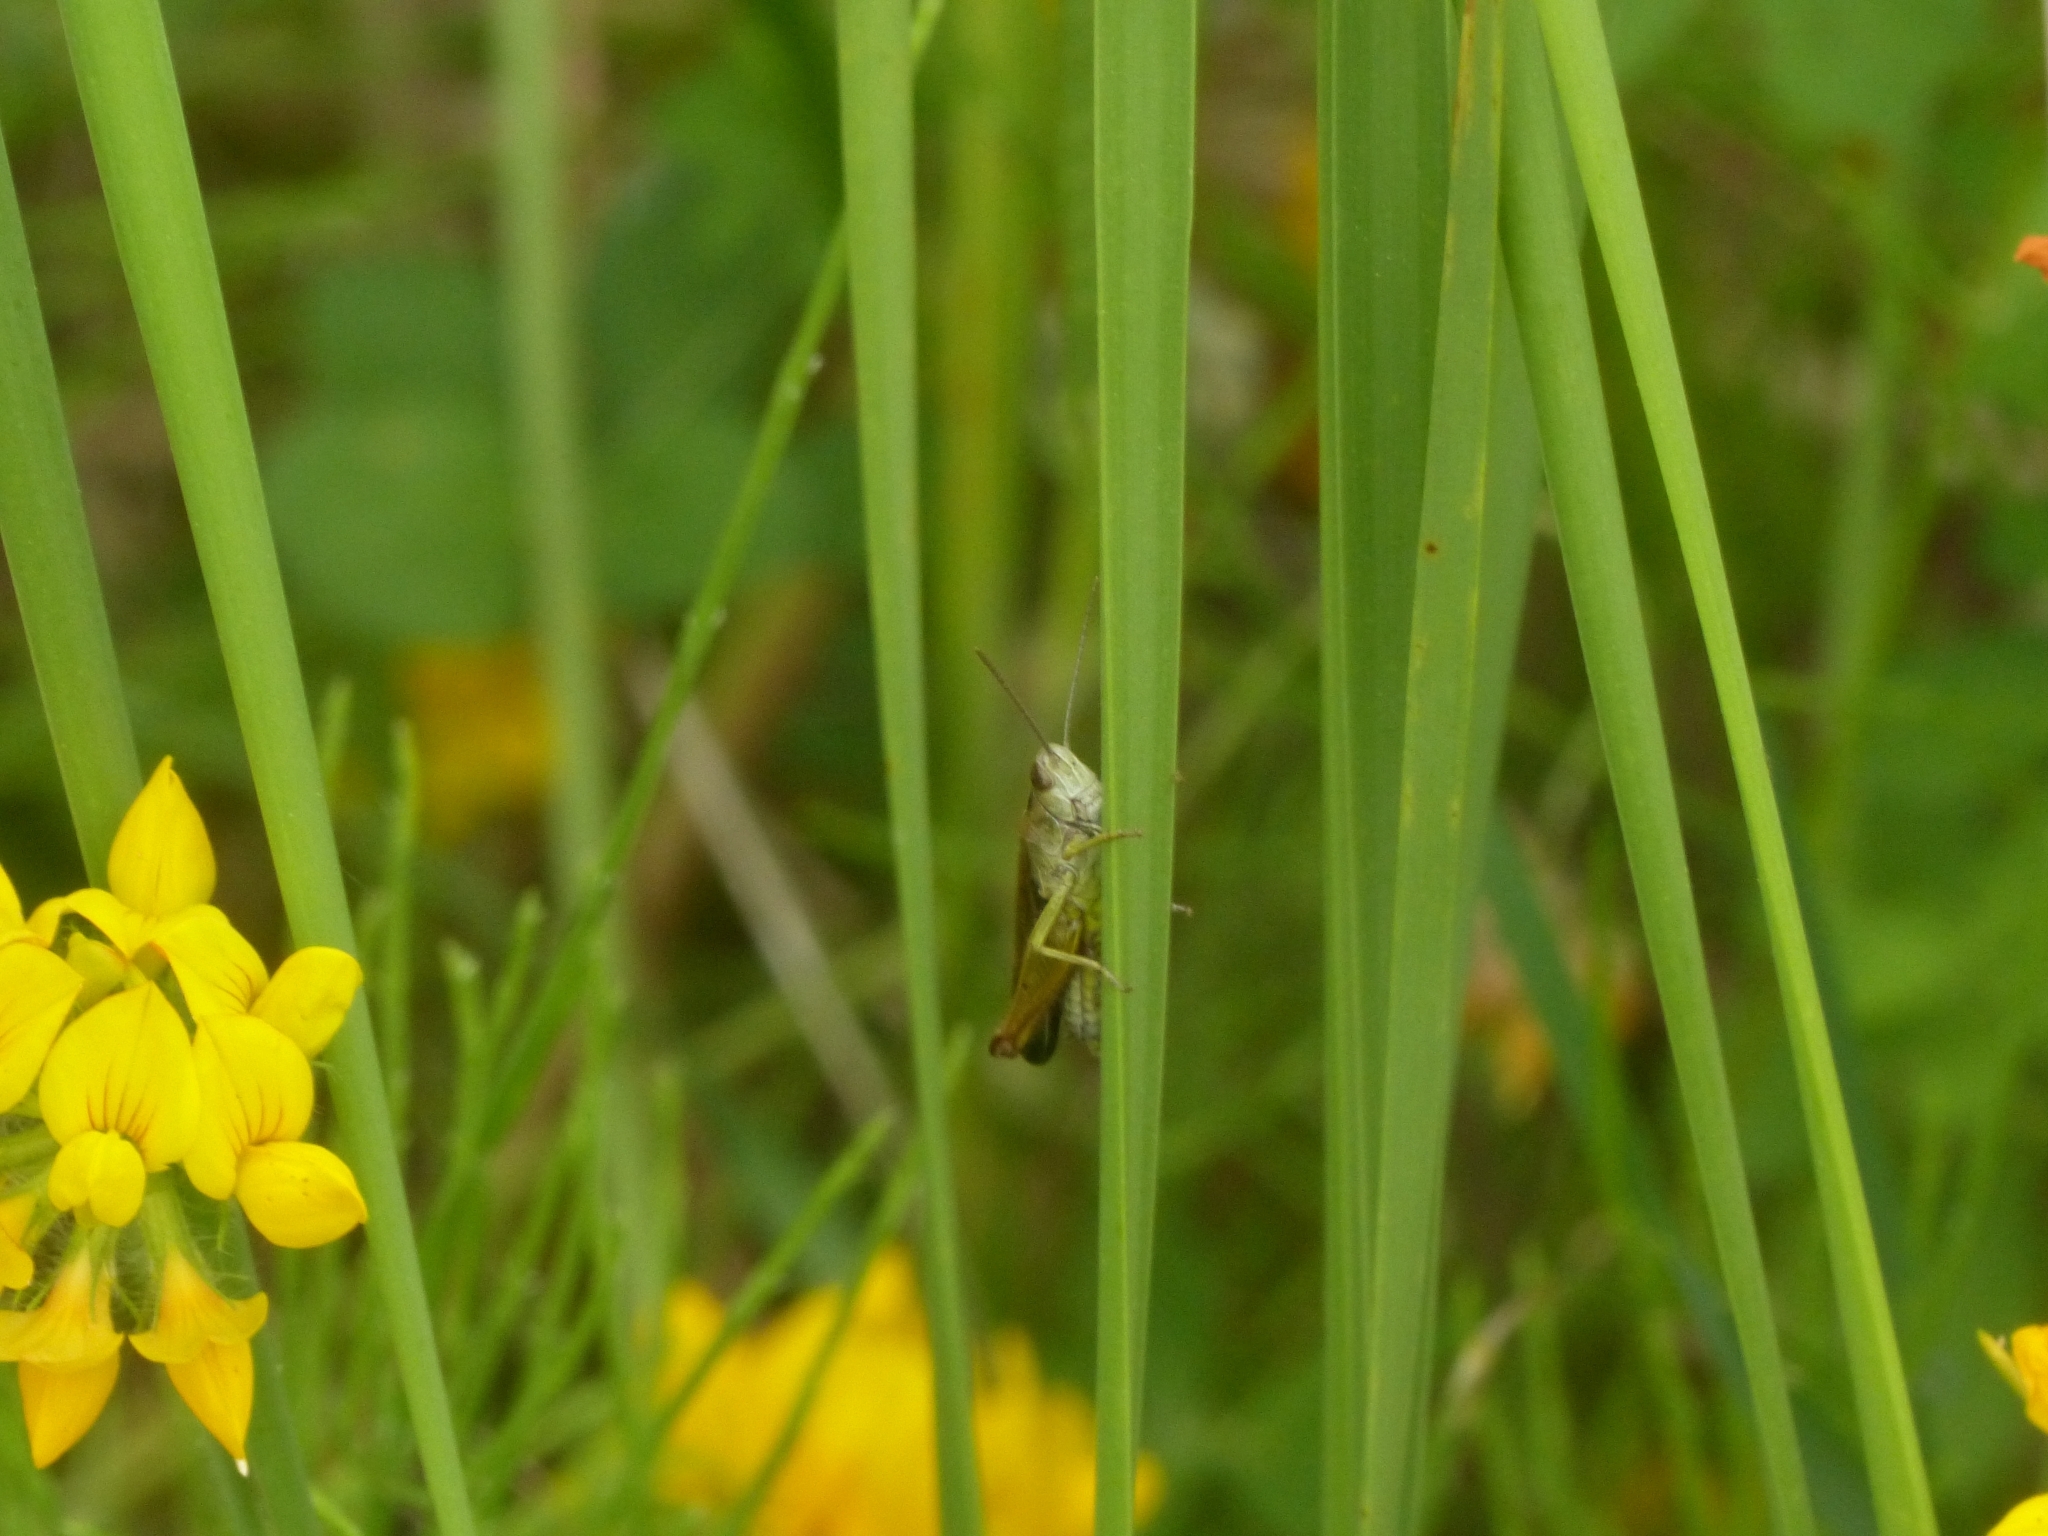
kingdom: Animalia
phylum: Arthropoda
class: Insecta
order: Orthoptera
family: Acrididae
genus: Omocestus
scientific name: Omocestus viridulus
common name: Common green grasshopper
